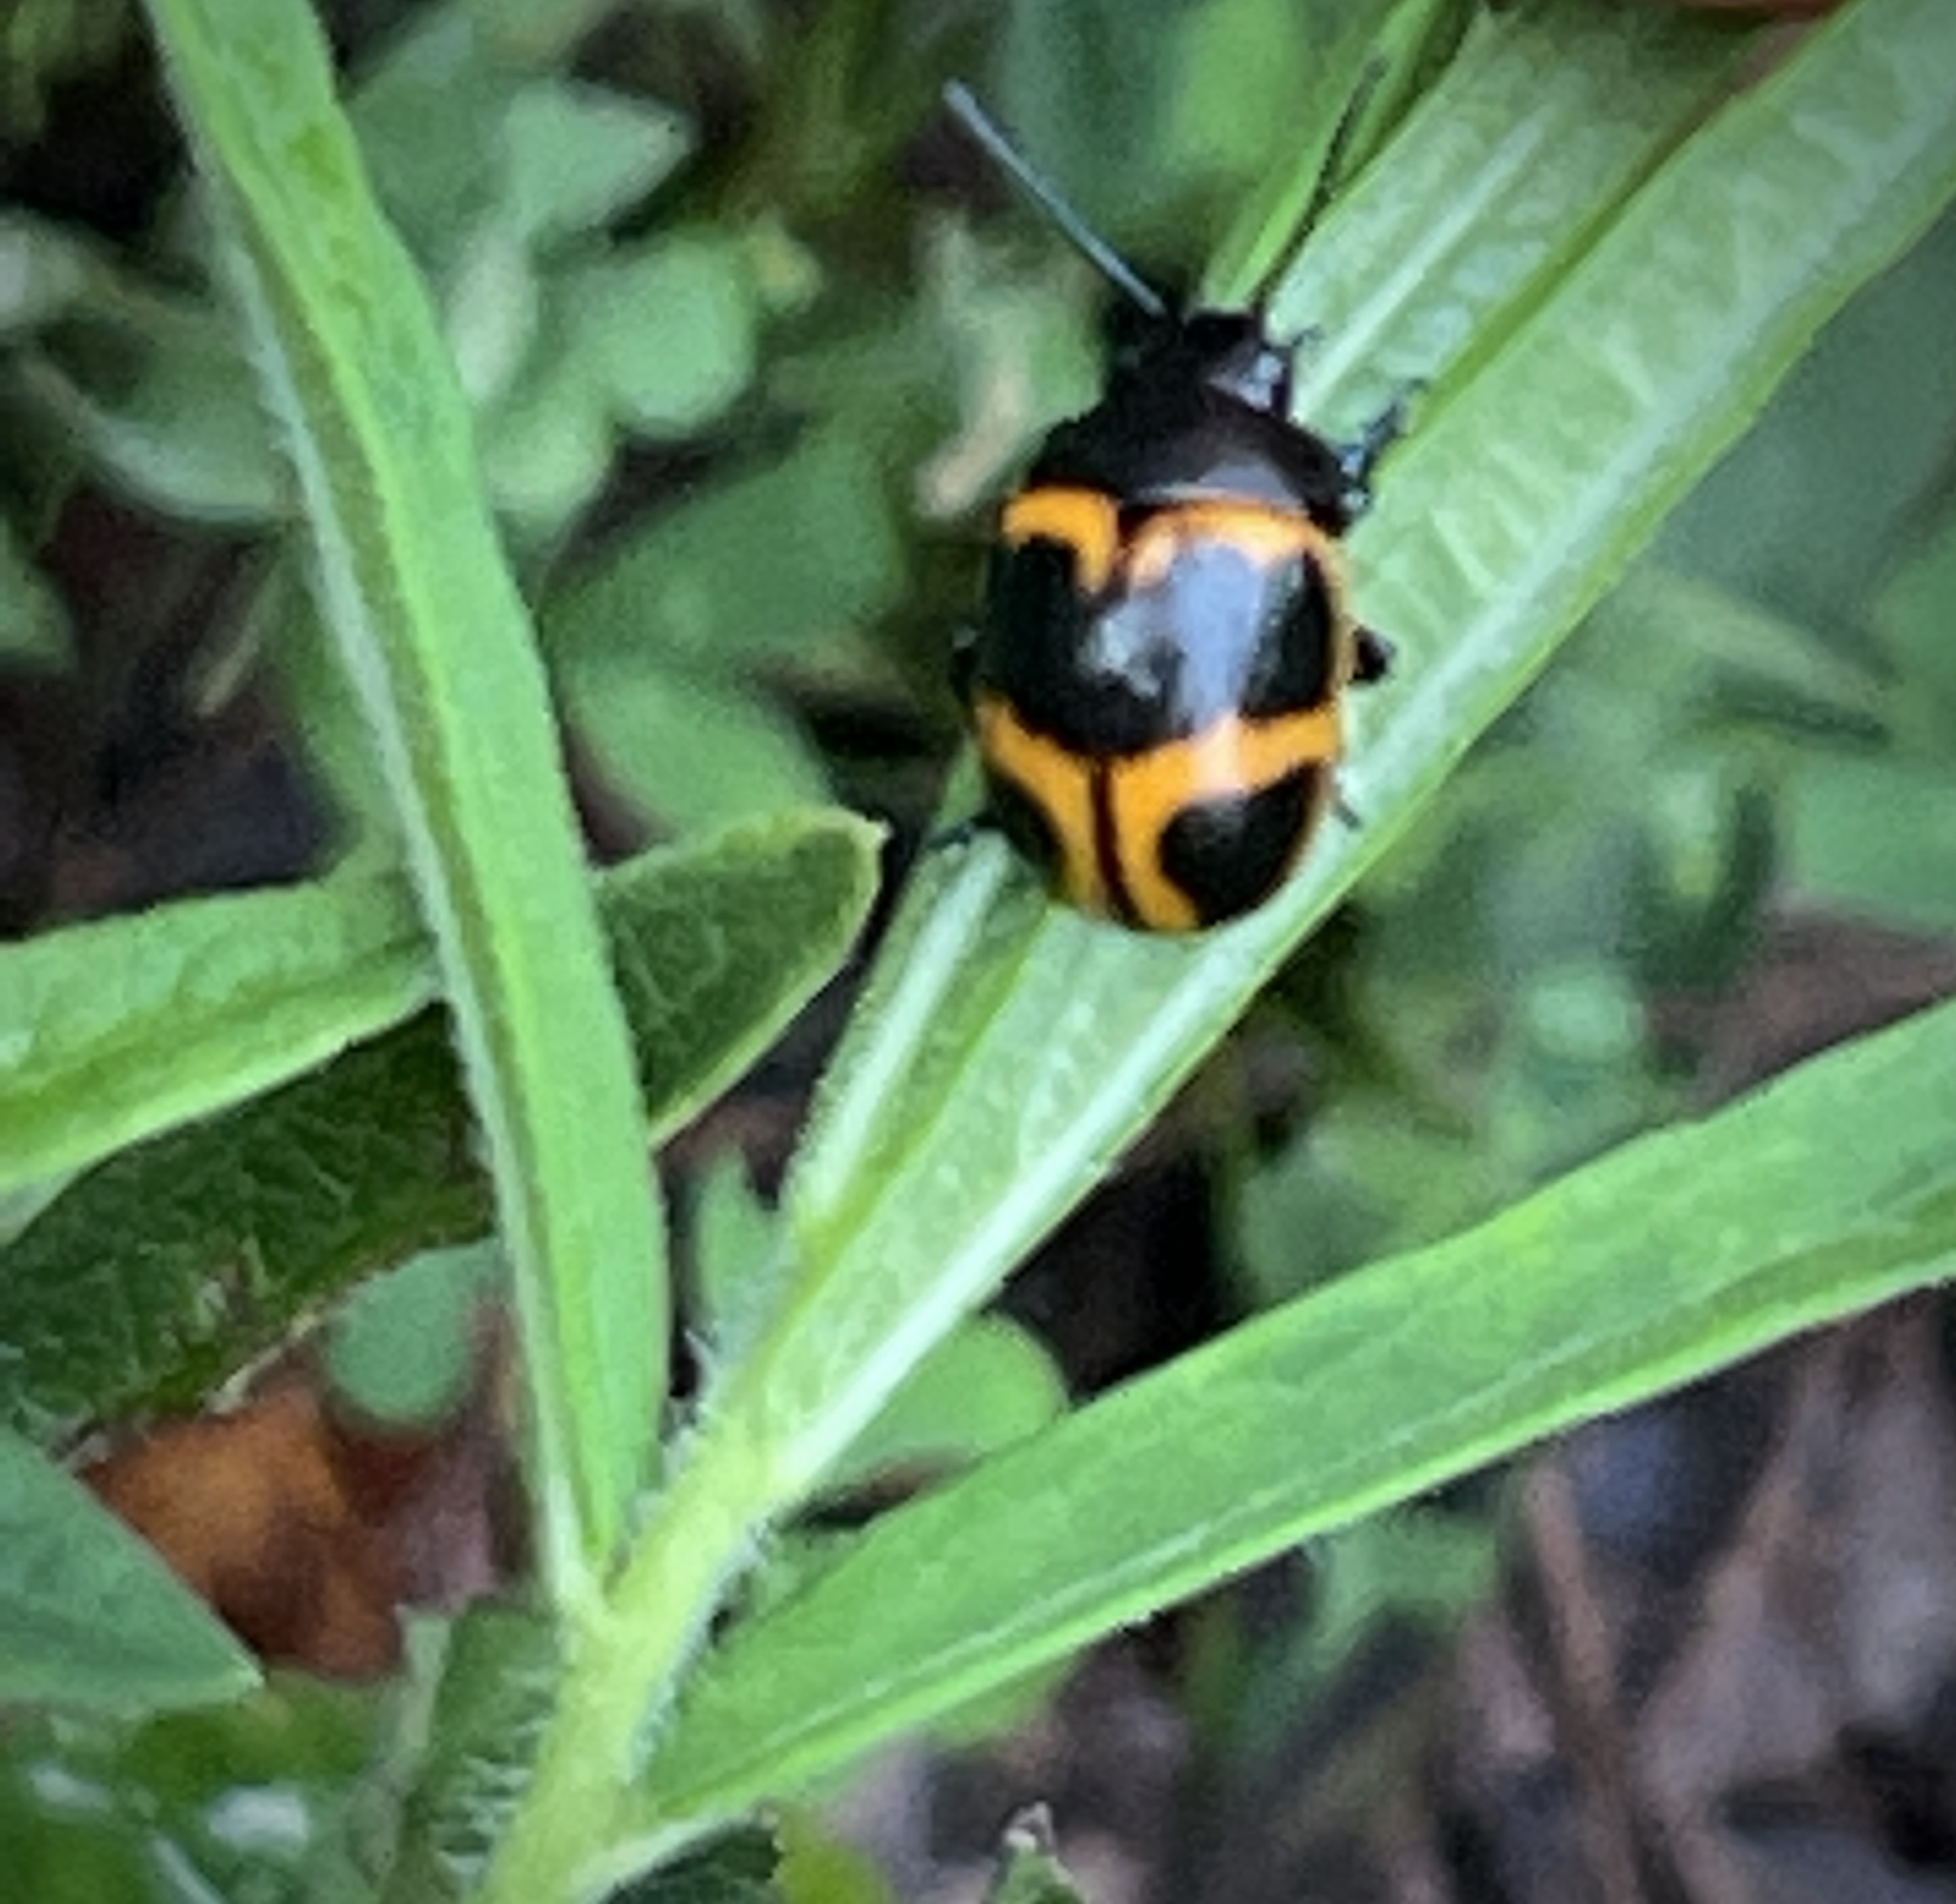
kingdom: Animalia
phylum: Arthropoda
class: Insecta
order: Coleoptera
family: Chrysomelidae
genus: Labidomera
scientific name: Labidomera clivicollis
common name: Swamp milkweed leaf beetle
